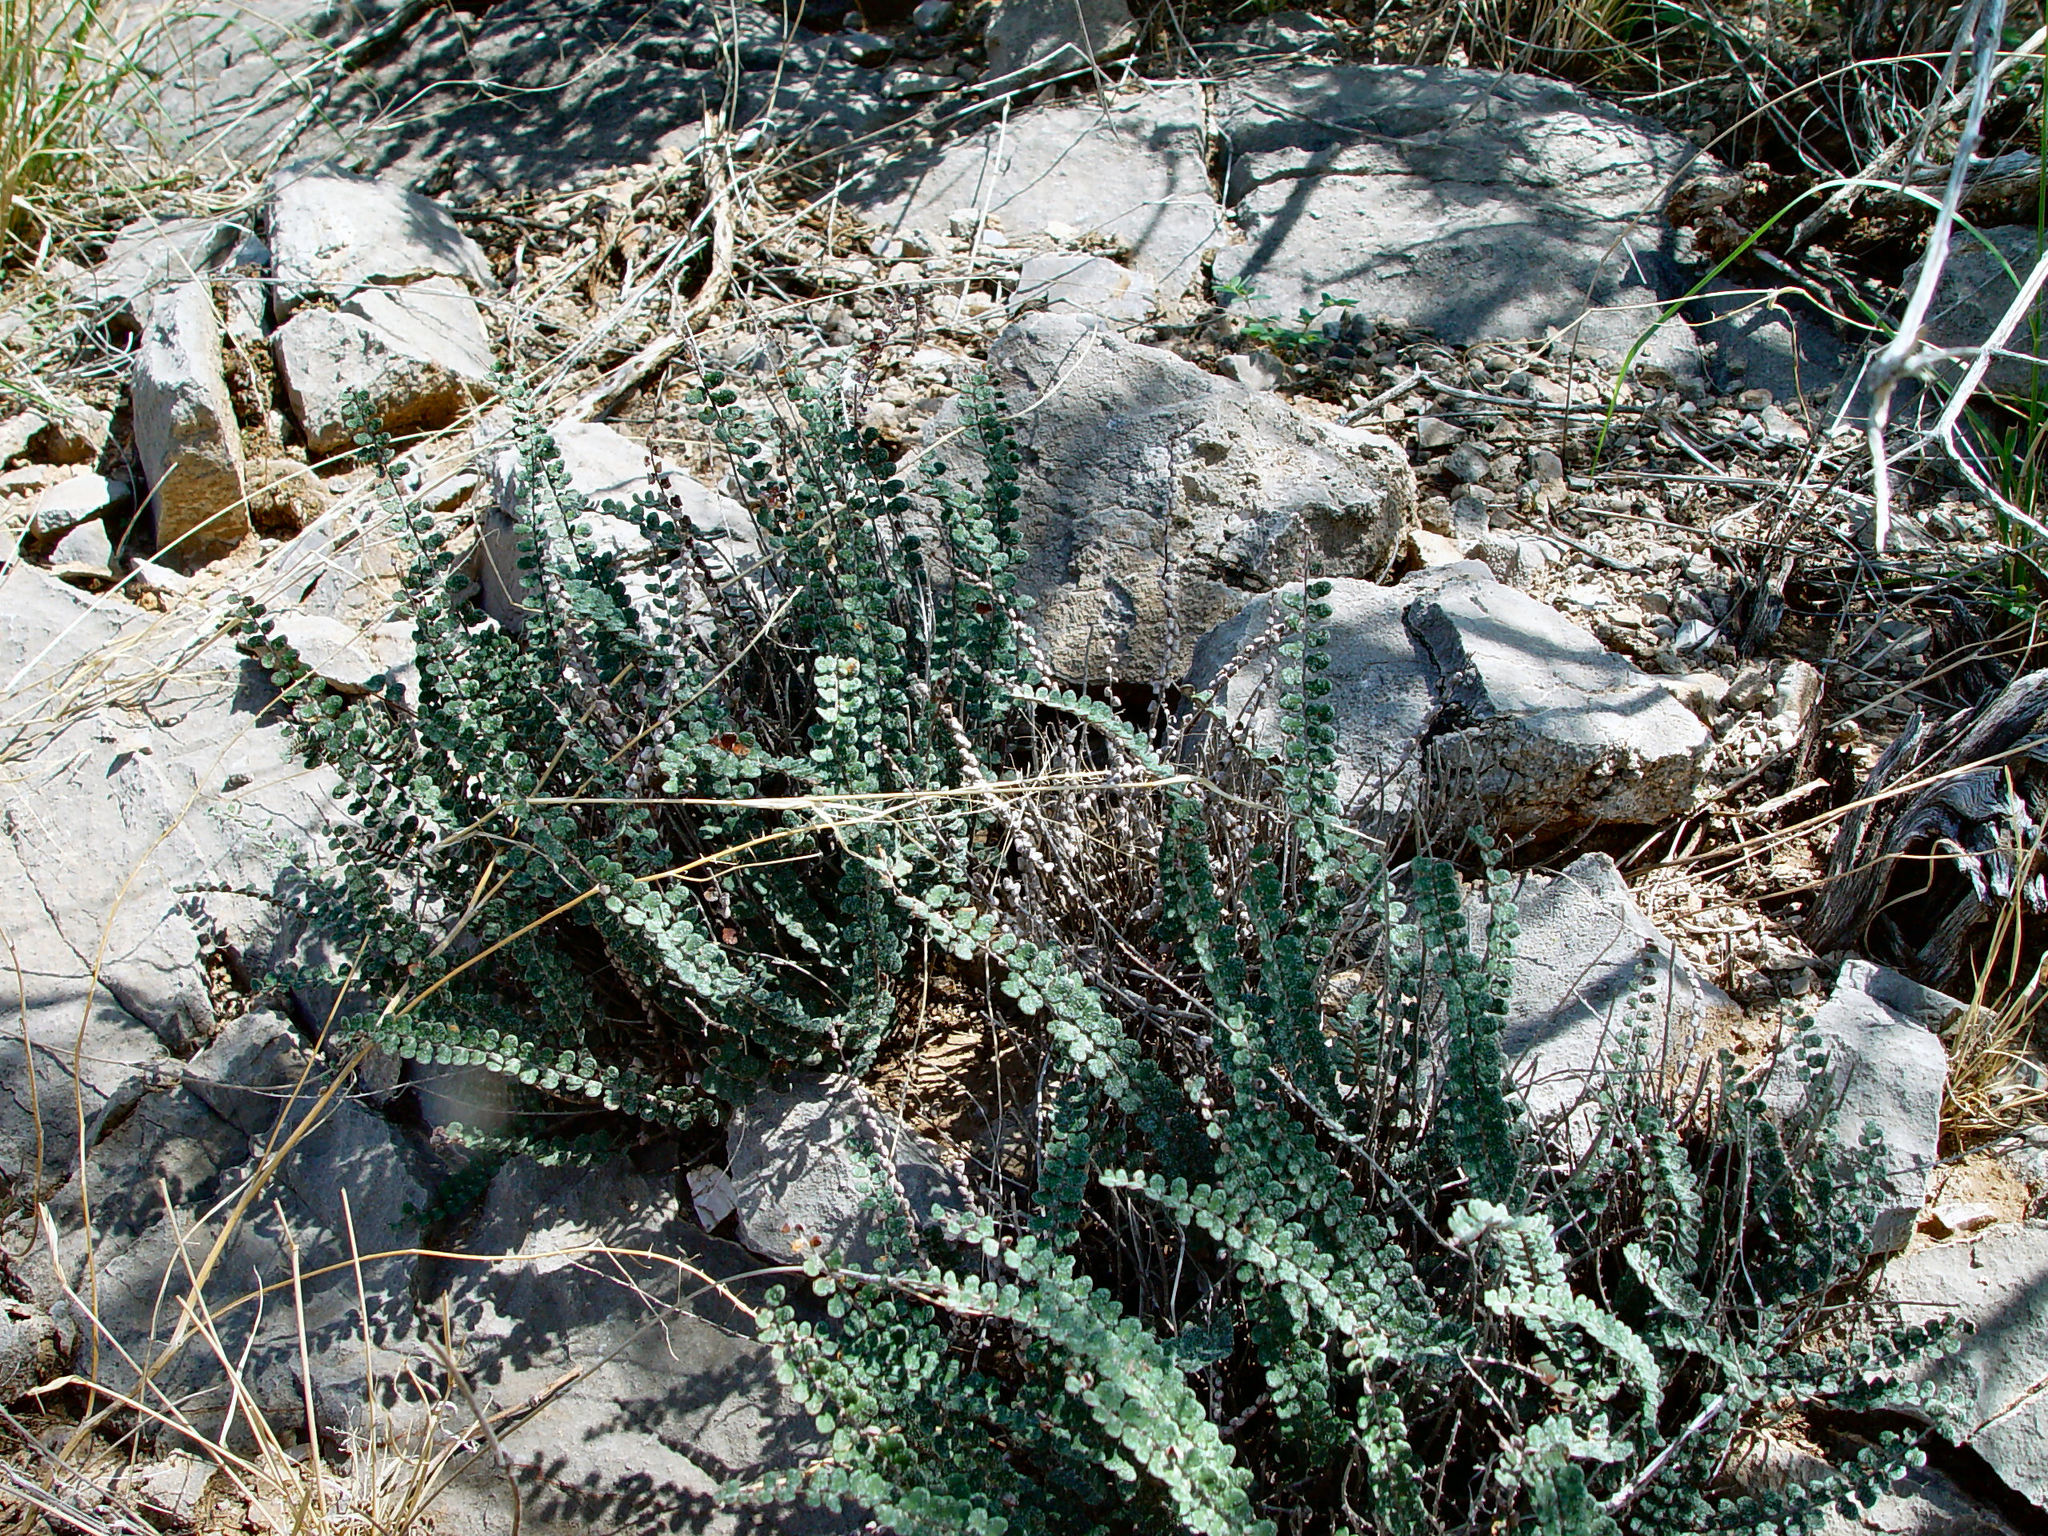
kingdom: Plantae
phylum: Tracheophyta
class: Polypodiopsida
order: Polypodiales
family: Pteridaceae
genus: Astrolepis
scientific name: Astrolepis cochisensis
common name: Scaly cloak fern
